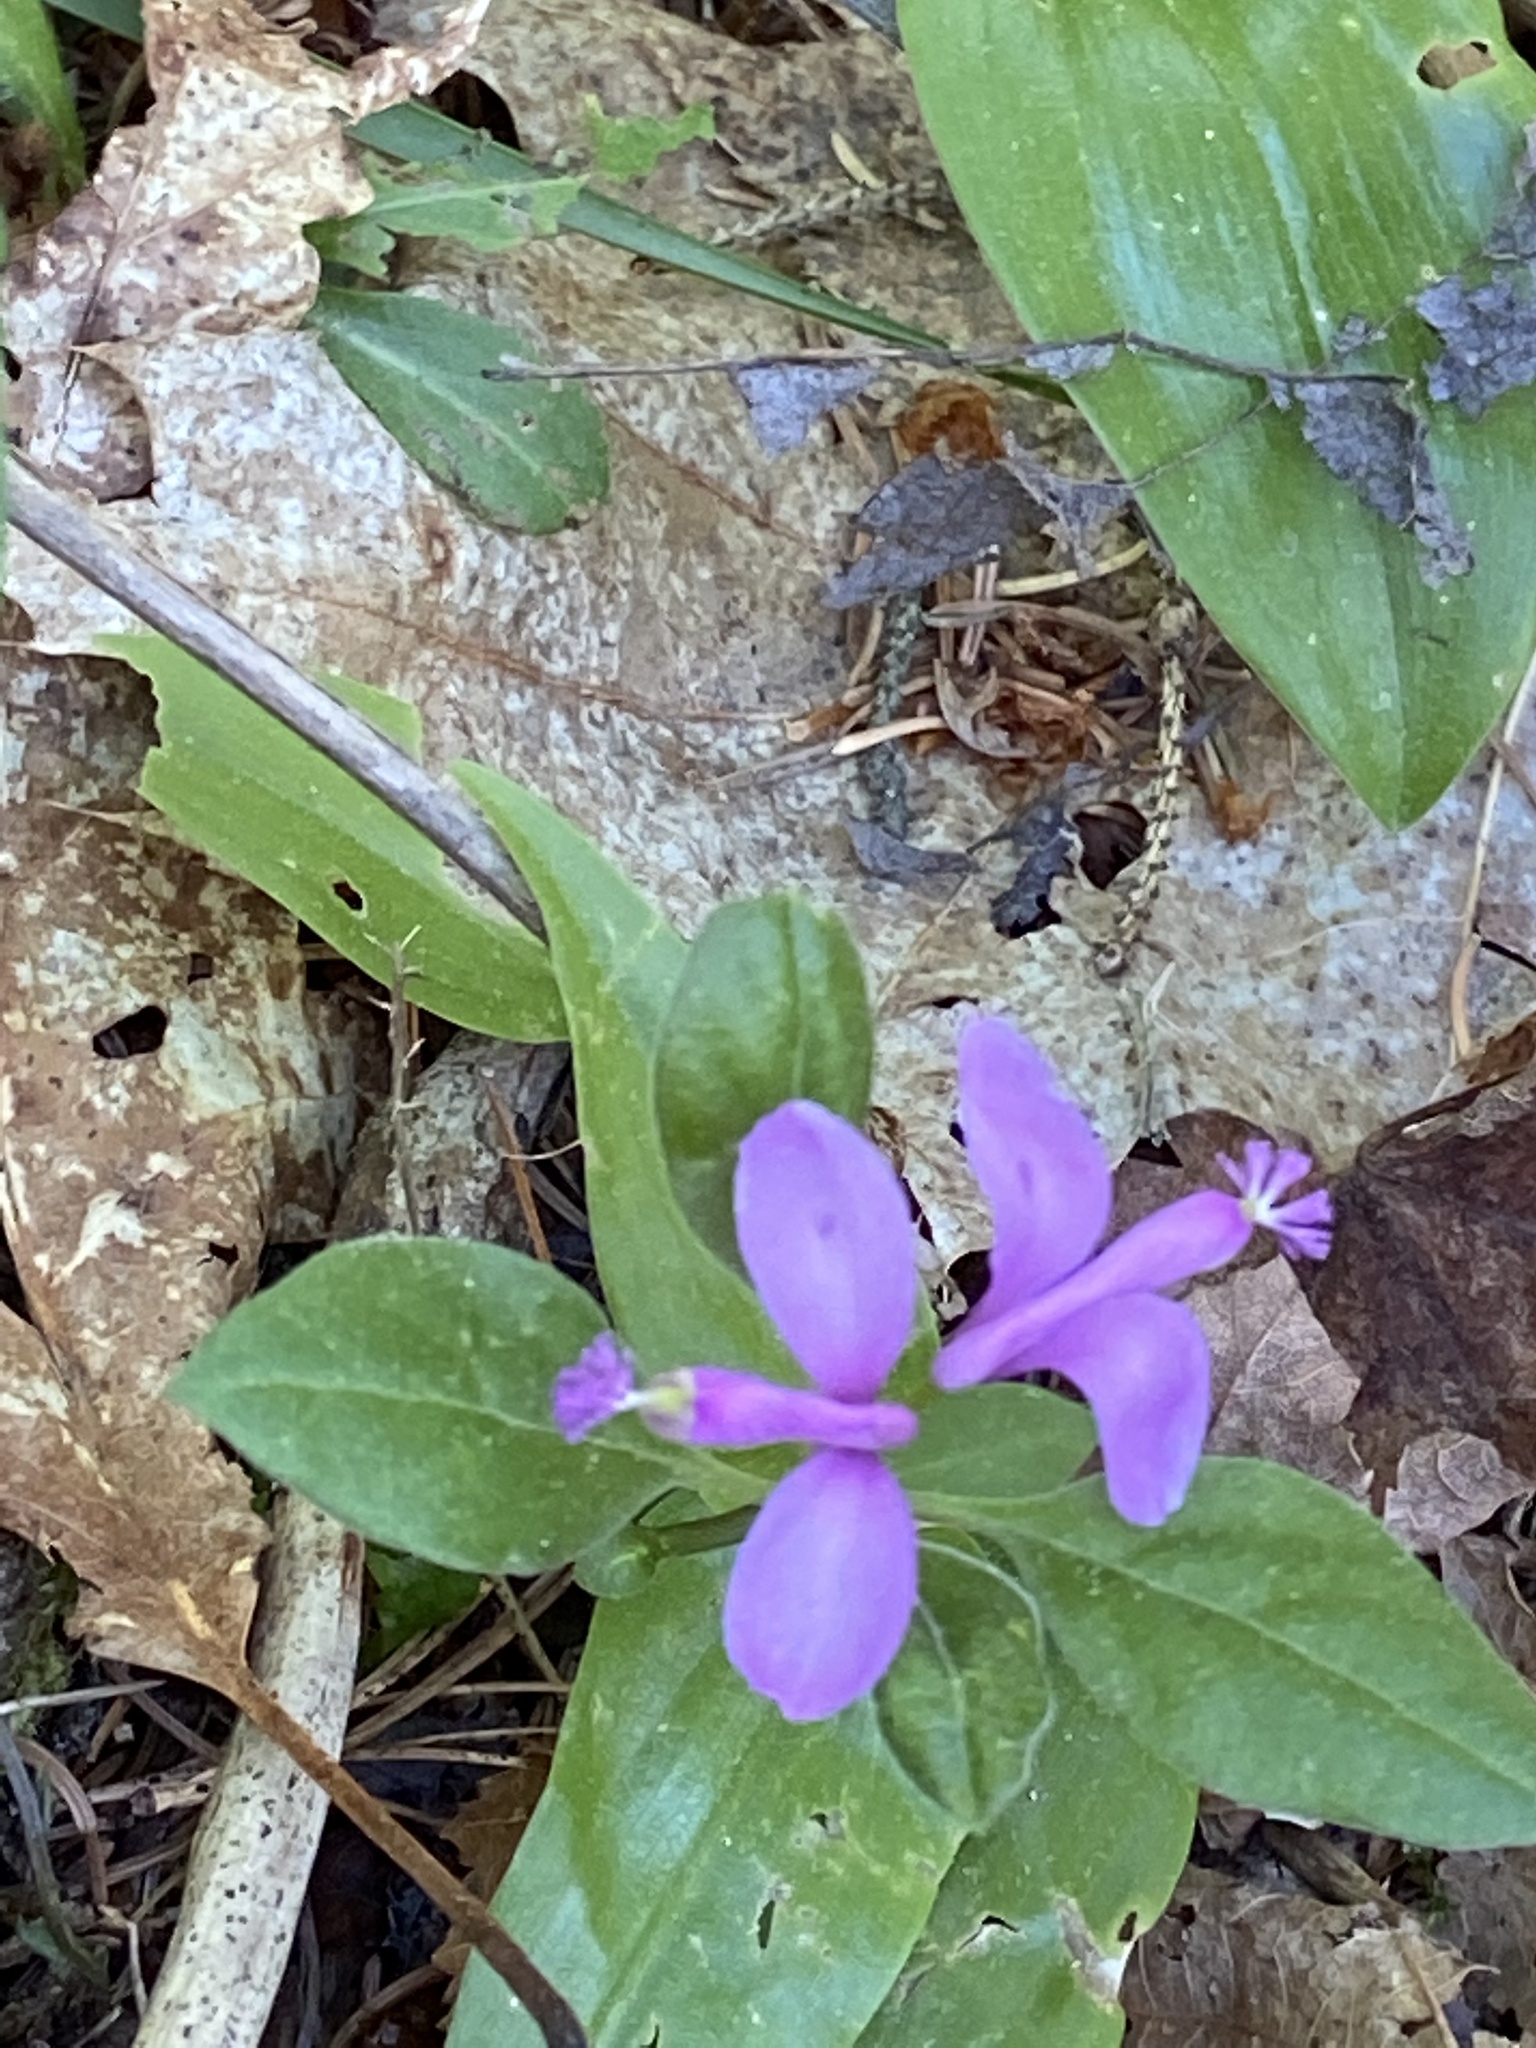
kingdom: Plantae
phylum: Tracheophyta
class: Magnoliopsida
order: Fabales
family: Polygalaceae
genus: Polygaloides
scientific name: Polygaloides paucifolia
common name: Bird-on-the-wing
